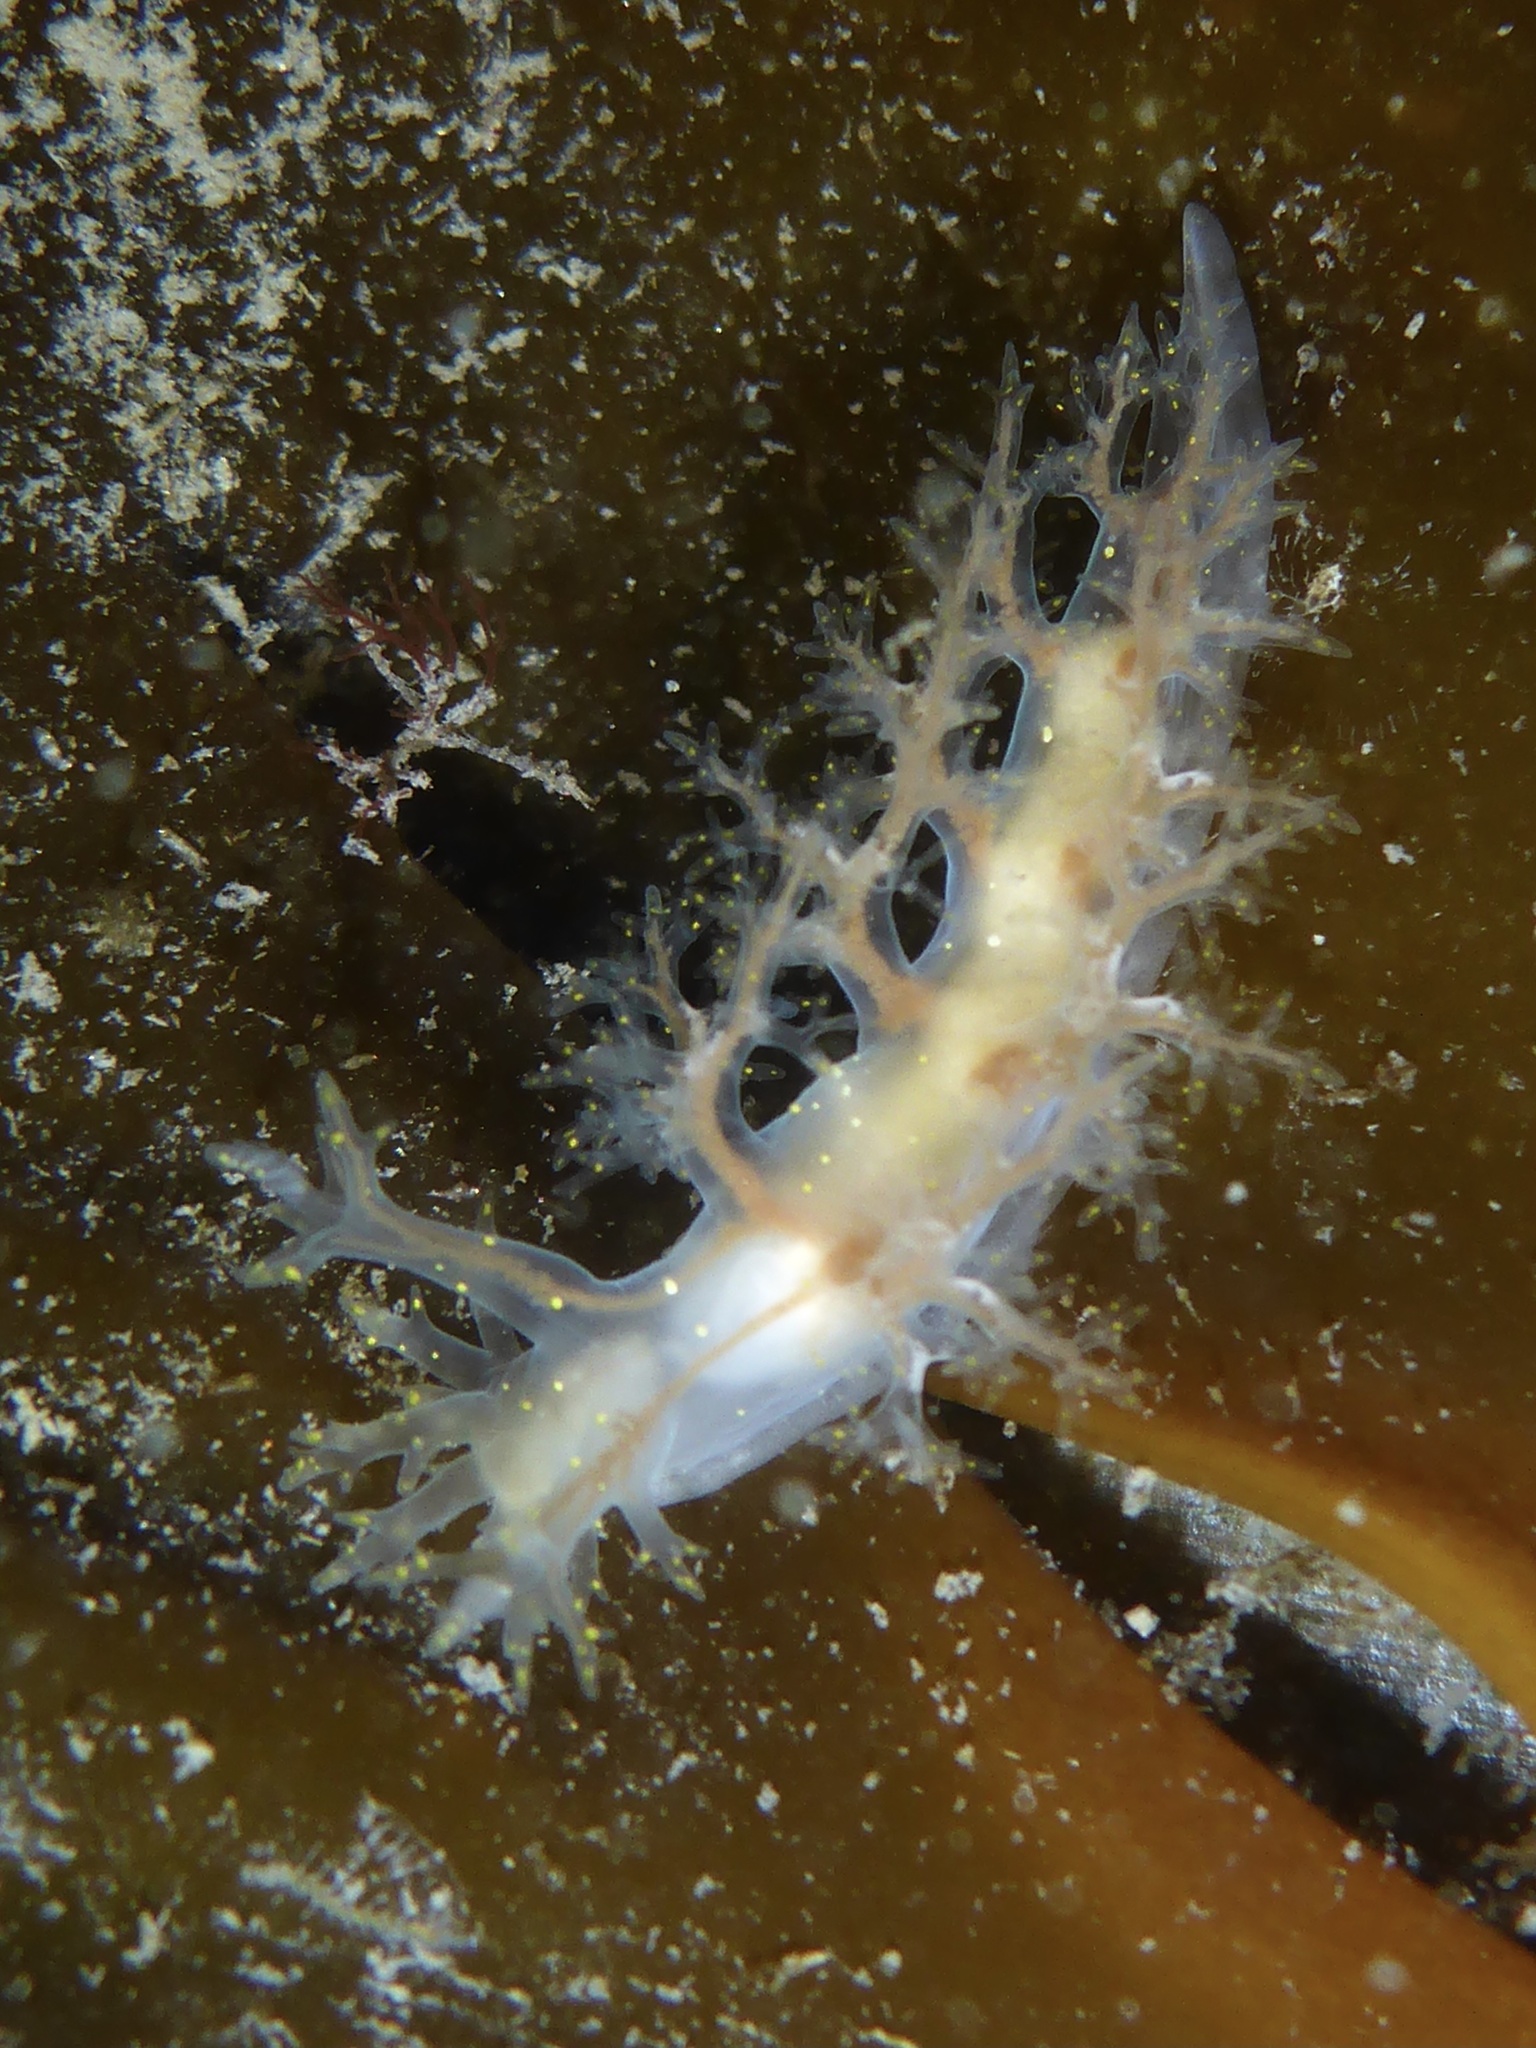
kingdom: Animalia
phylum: Mollusca
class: Gastropoda
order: Nudibranchia
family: Dendronotidae
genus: Dendronotus
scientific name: Dendronotus venustus
